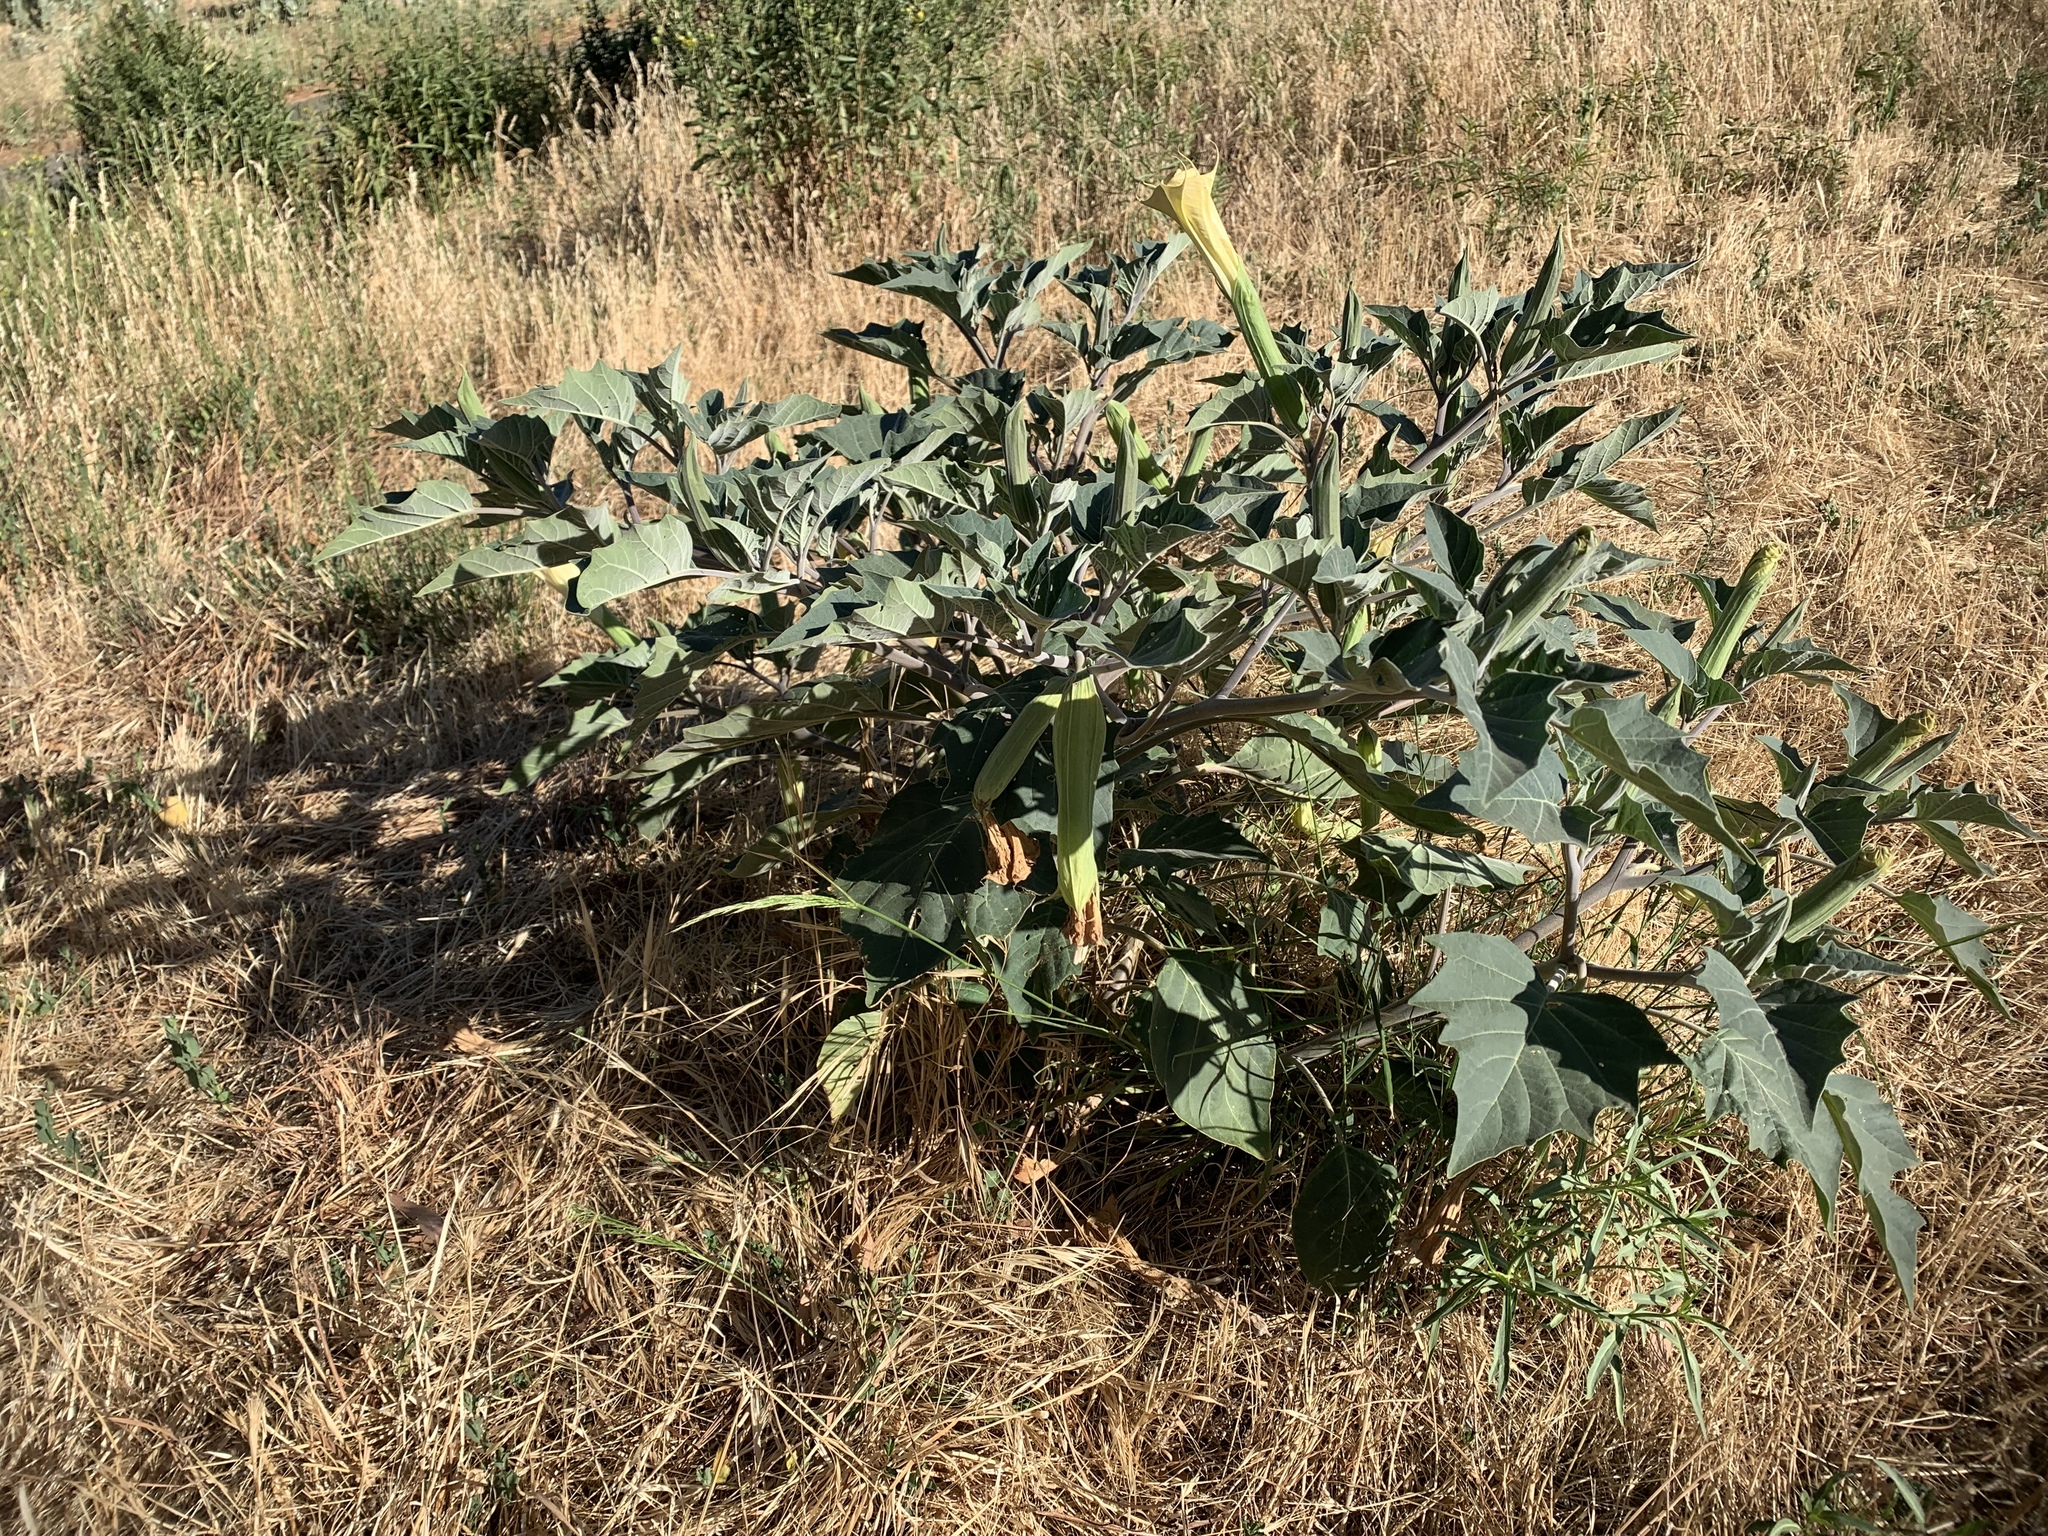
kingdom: Plantae
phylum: Tracheophyta
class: Magnoliopsida
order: Solanales
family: Solanaceae
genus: Datura
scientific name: Datura wrightii
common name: Sacred thorn-apple
